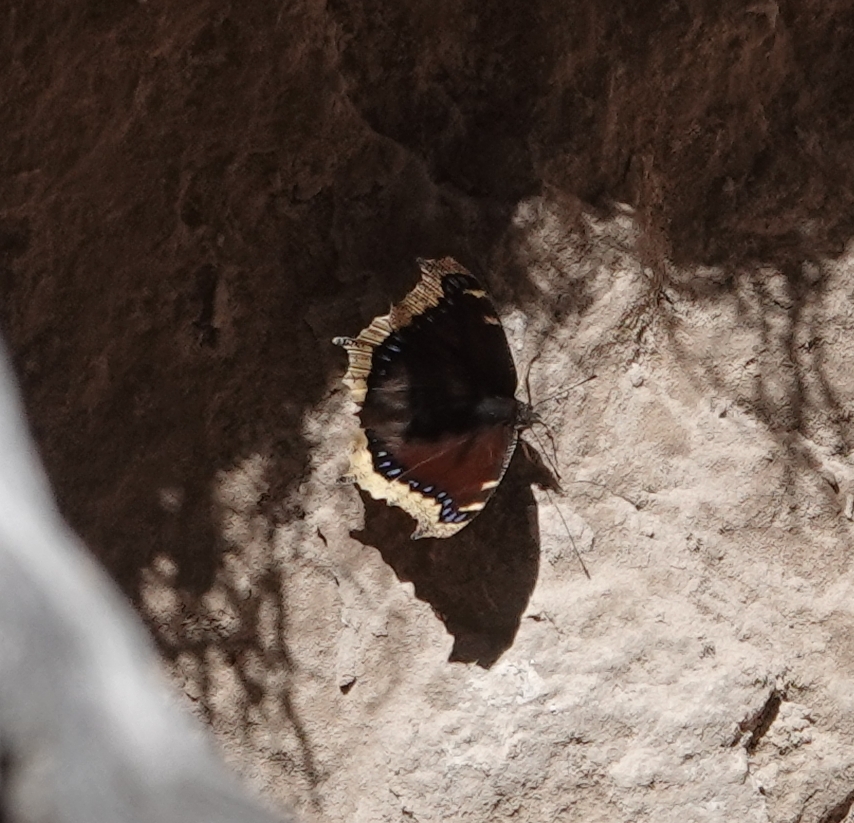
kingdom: Animalia
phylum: Arthropoda
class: Insecta
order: Lepidoptera
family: Nymphalidae
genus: Nymphalis
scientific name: Nymphalis antiopa
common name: Camberwell beauty
